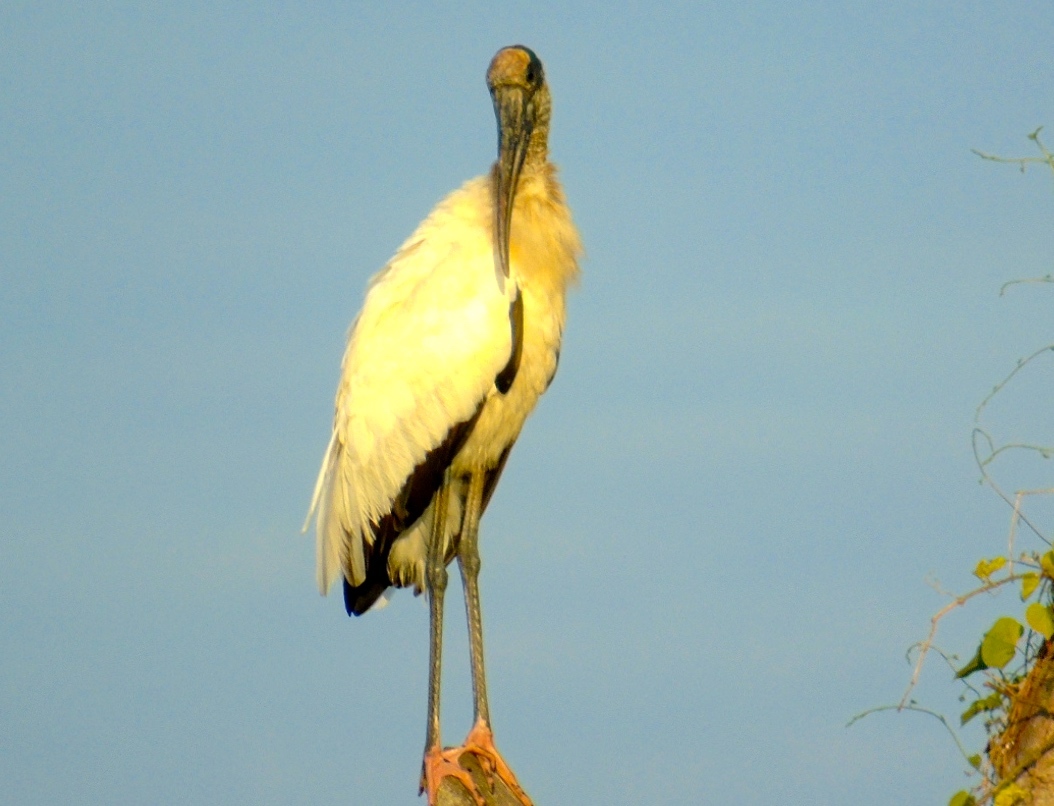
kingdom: Animalia
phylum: Chordata
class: Aves
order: Ciconiiformes
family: Ciconiidae
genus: Mycteria
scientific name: Mycteria americana
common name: Wood stork
